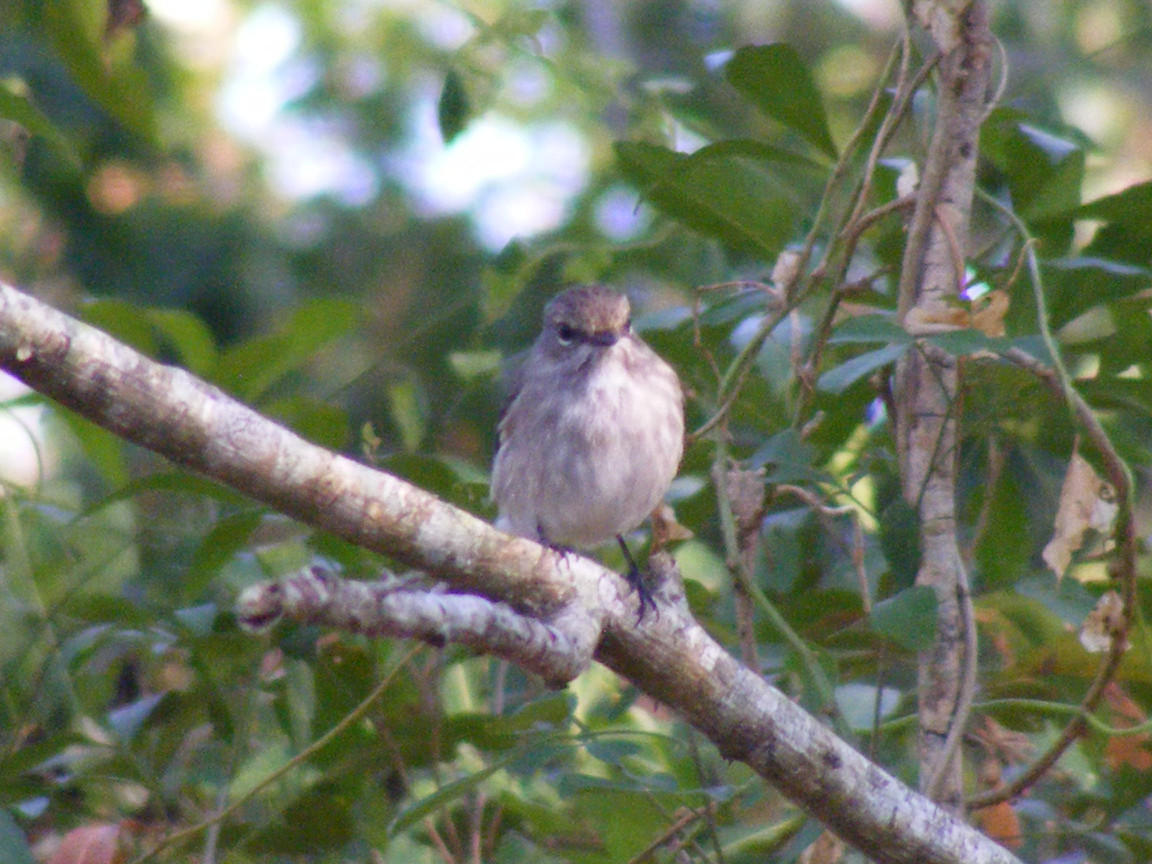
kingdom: Animalia
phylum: Chordata
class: Aves
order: Passeriformes
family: Muscicapidae
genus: Muscicapa
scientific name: Muscicapa adusta
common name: African dusky flycatcher
